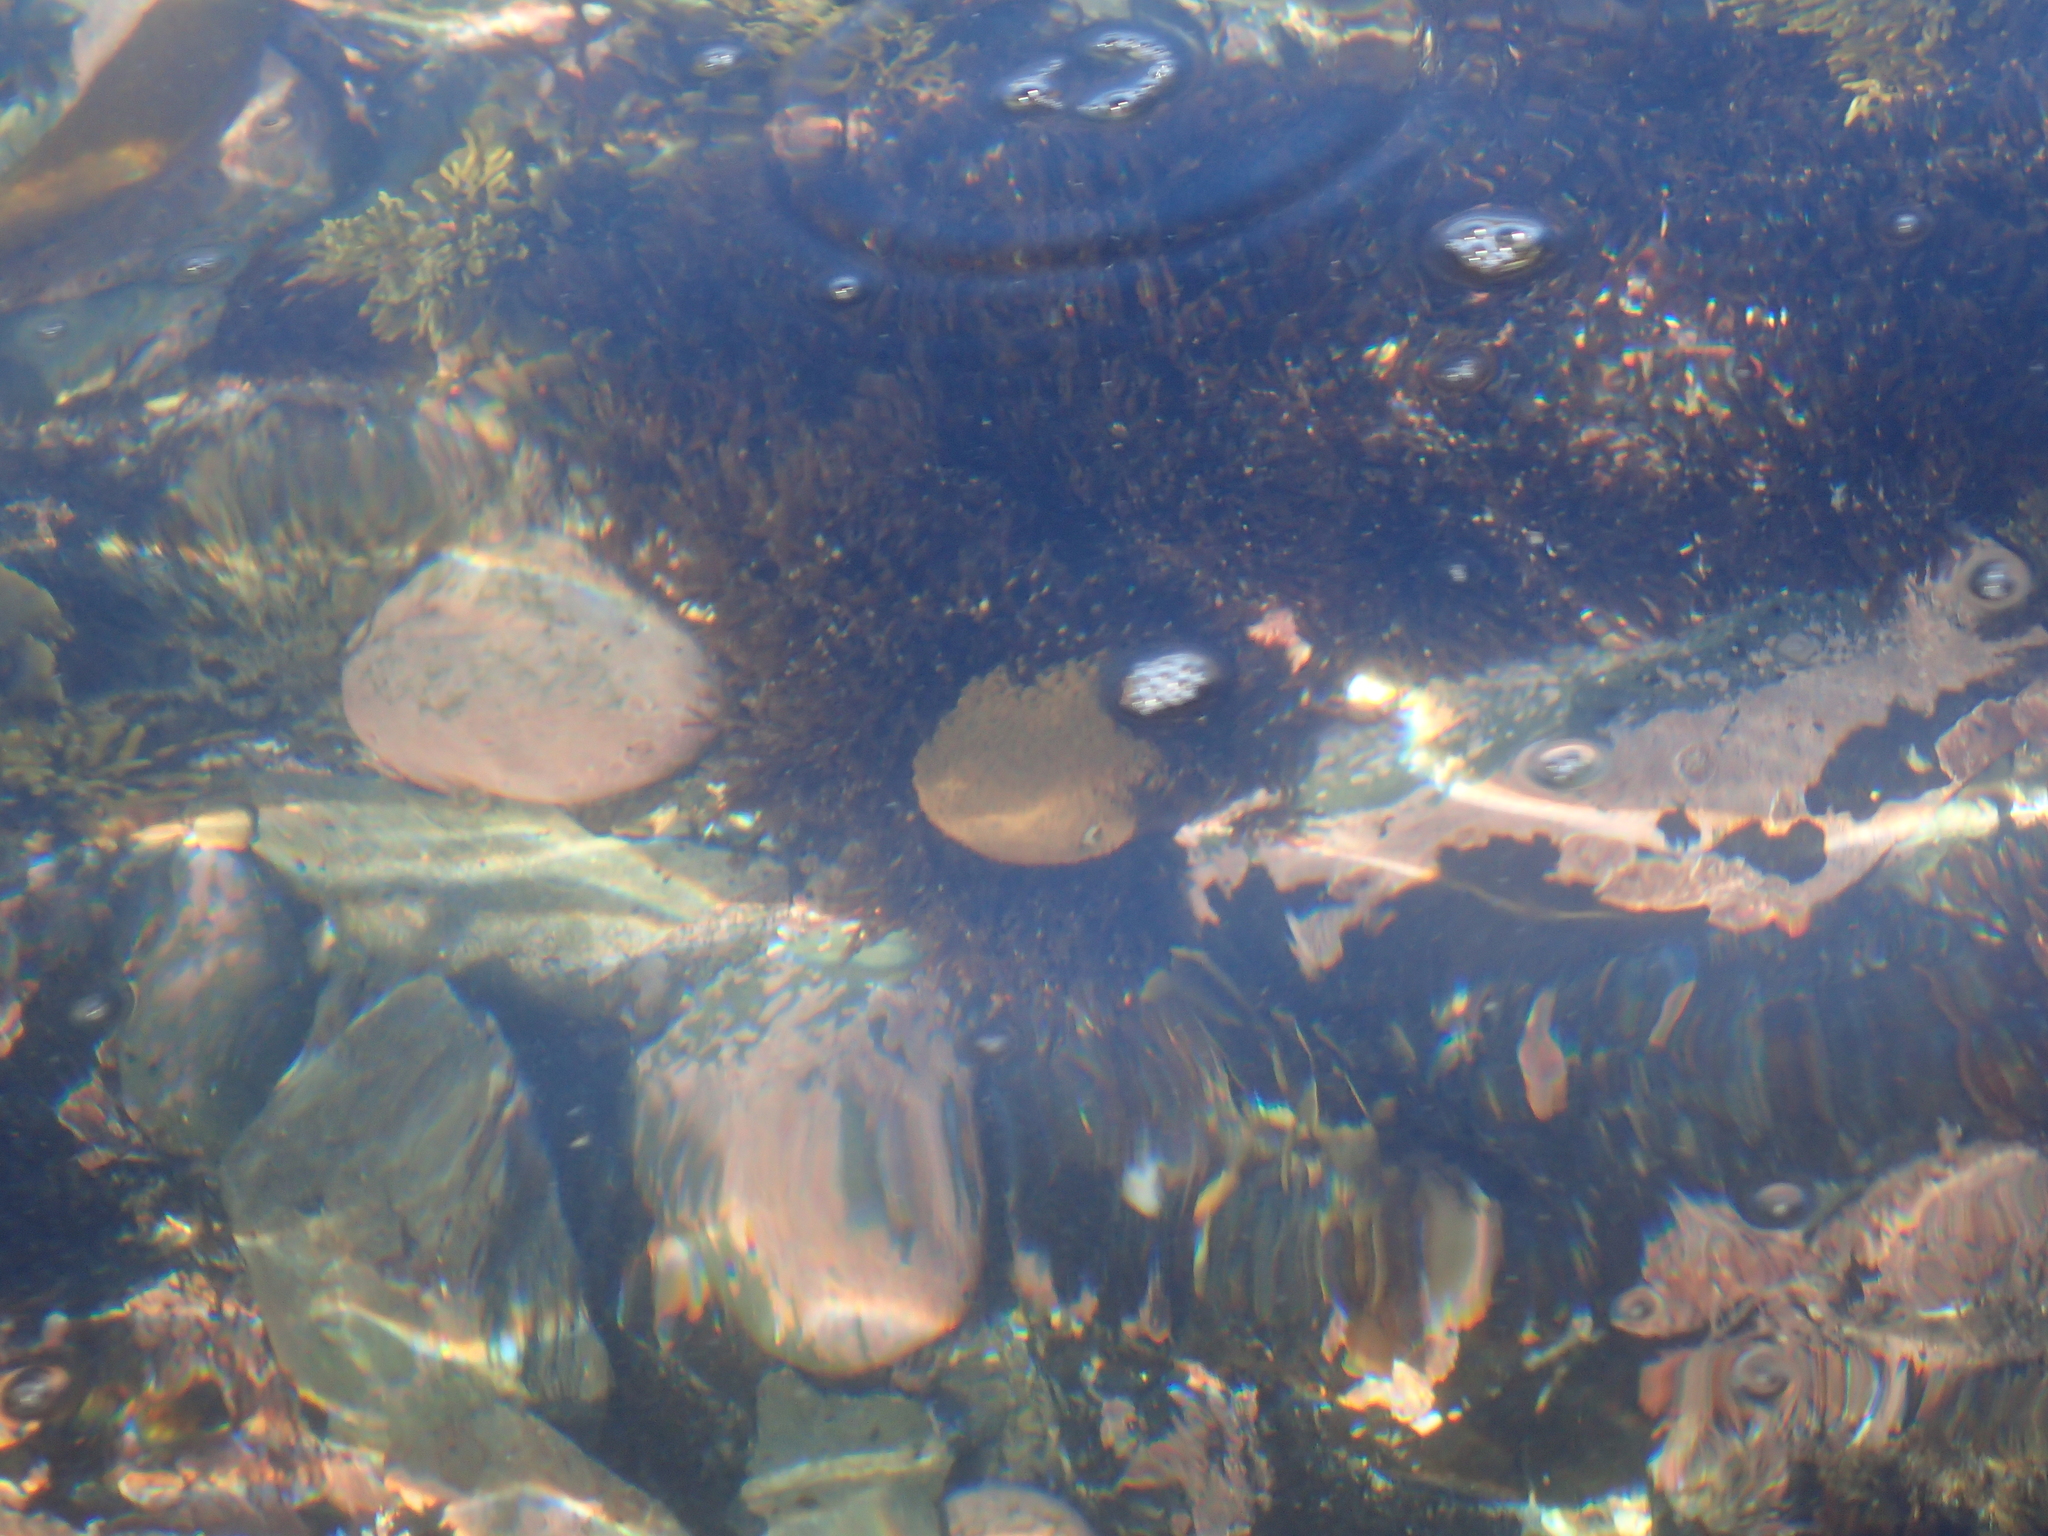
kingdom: Animalia
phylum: Cnidaria
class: Anthozoa
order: Actiniaria
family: Actiniidae
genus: Phlyctenactis
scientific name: Phlyctenactis tuberculosa
